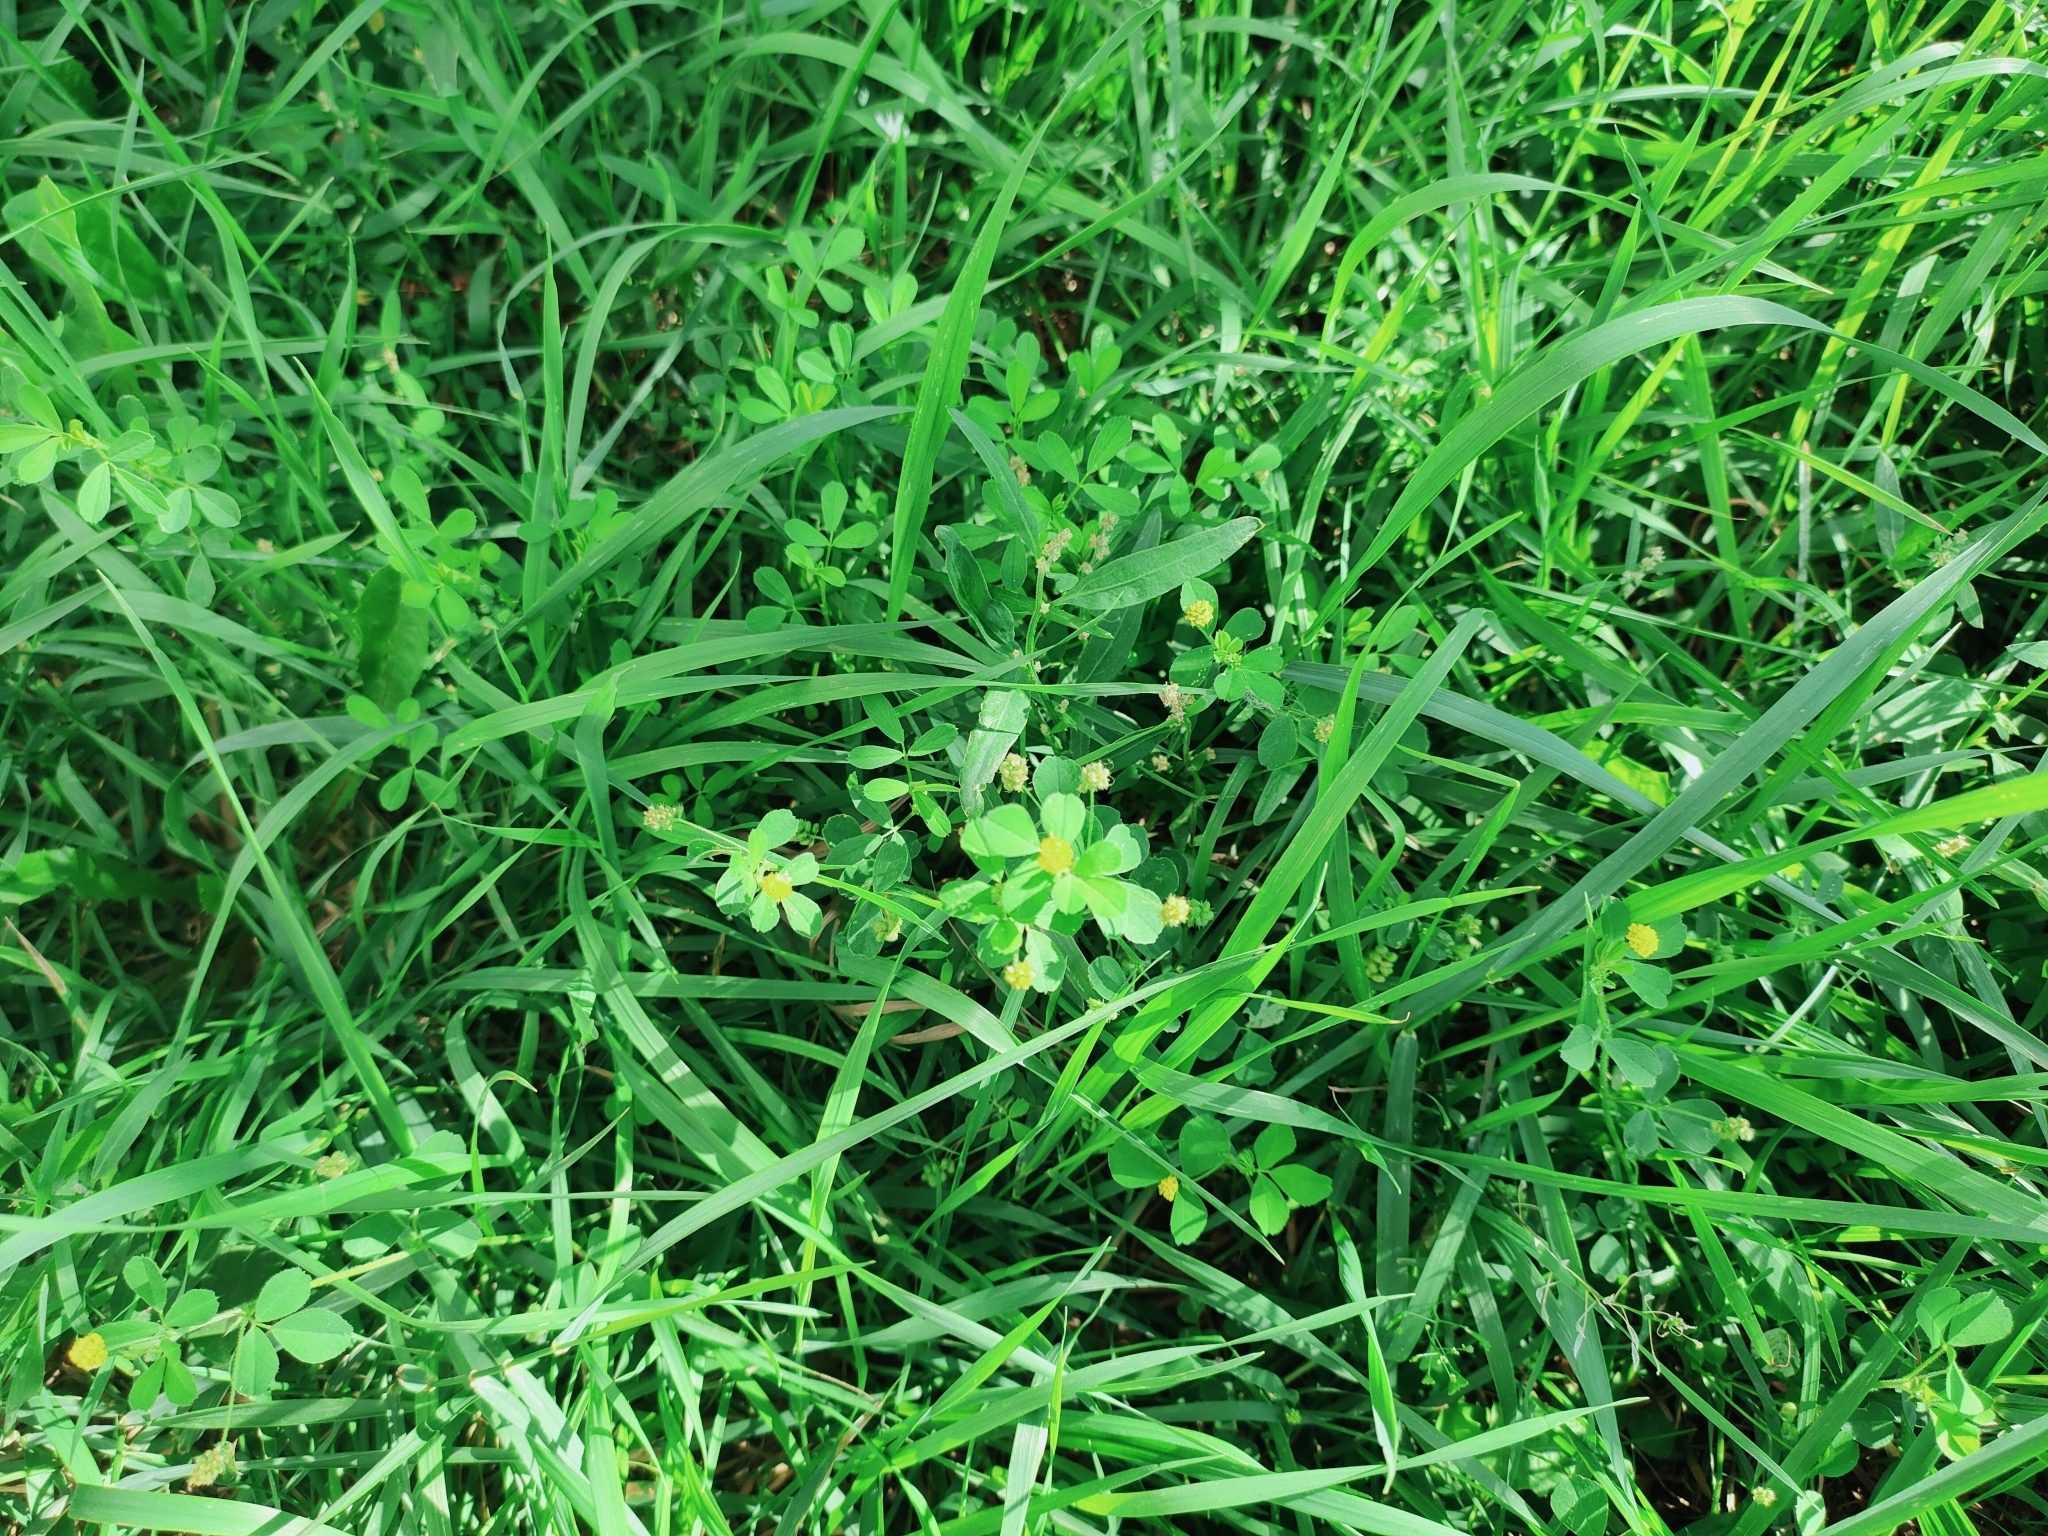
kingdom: Plantae
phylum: Tracheophyta
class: Magnoliopsida
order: Fabales
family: Fabaceae
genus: Medicago
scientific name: Medicago lupulina
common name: Black medick
